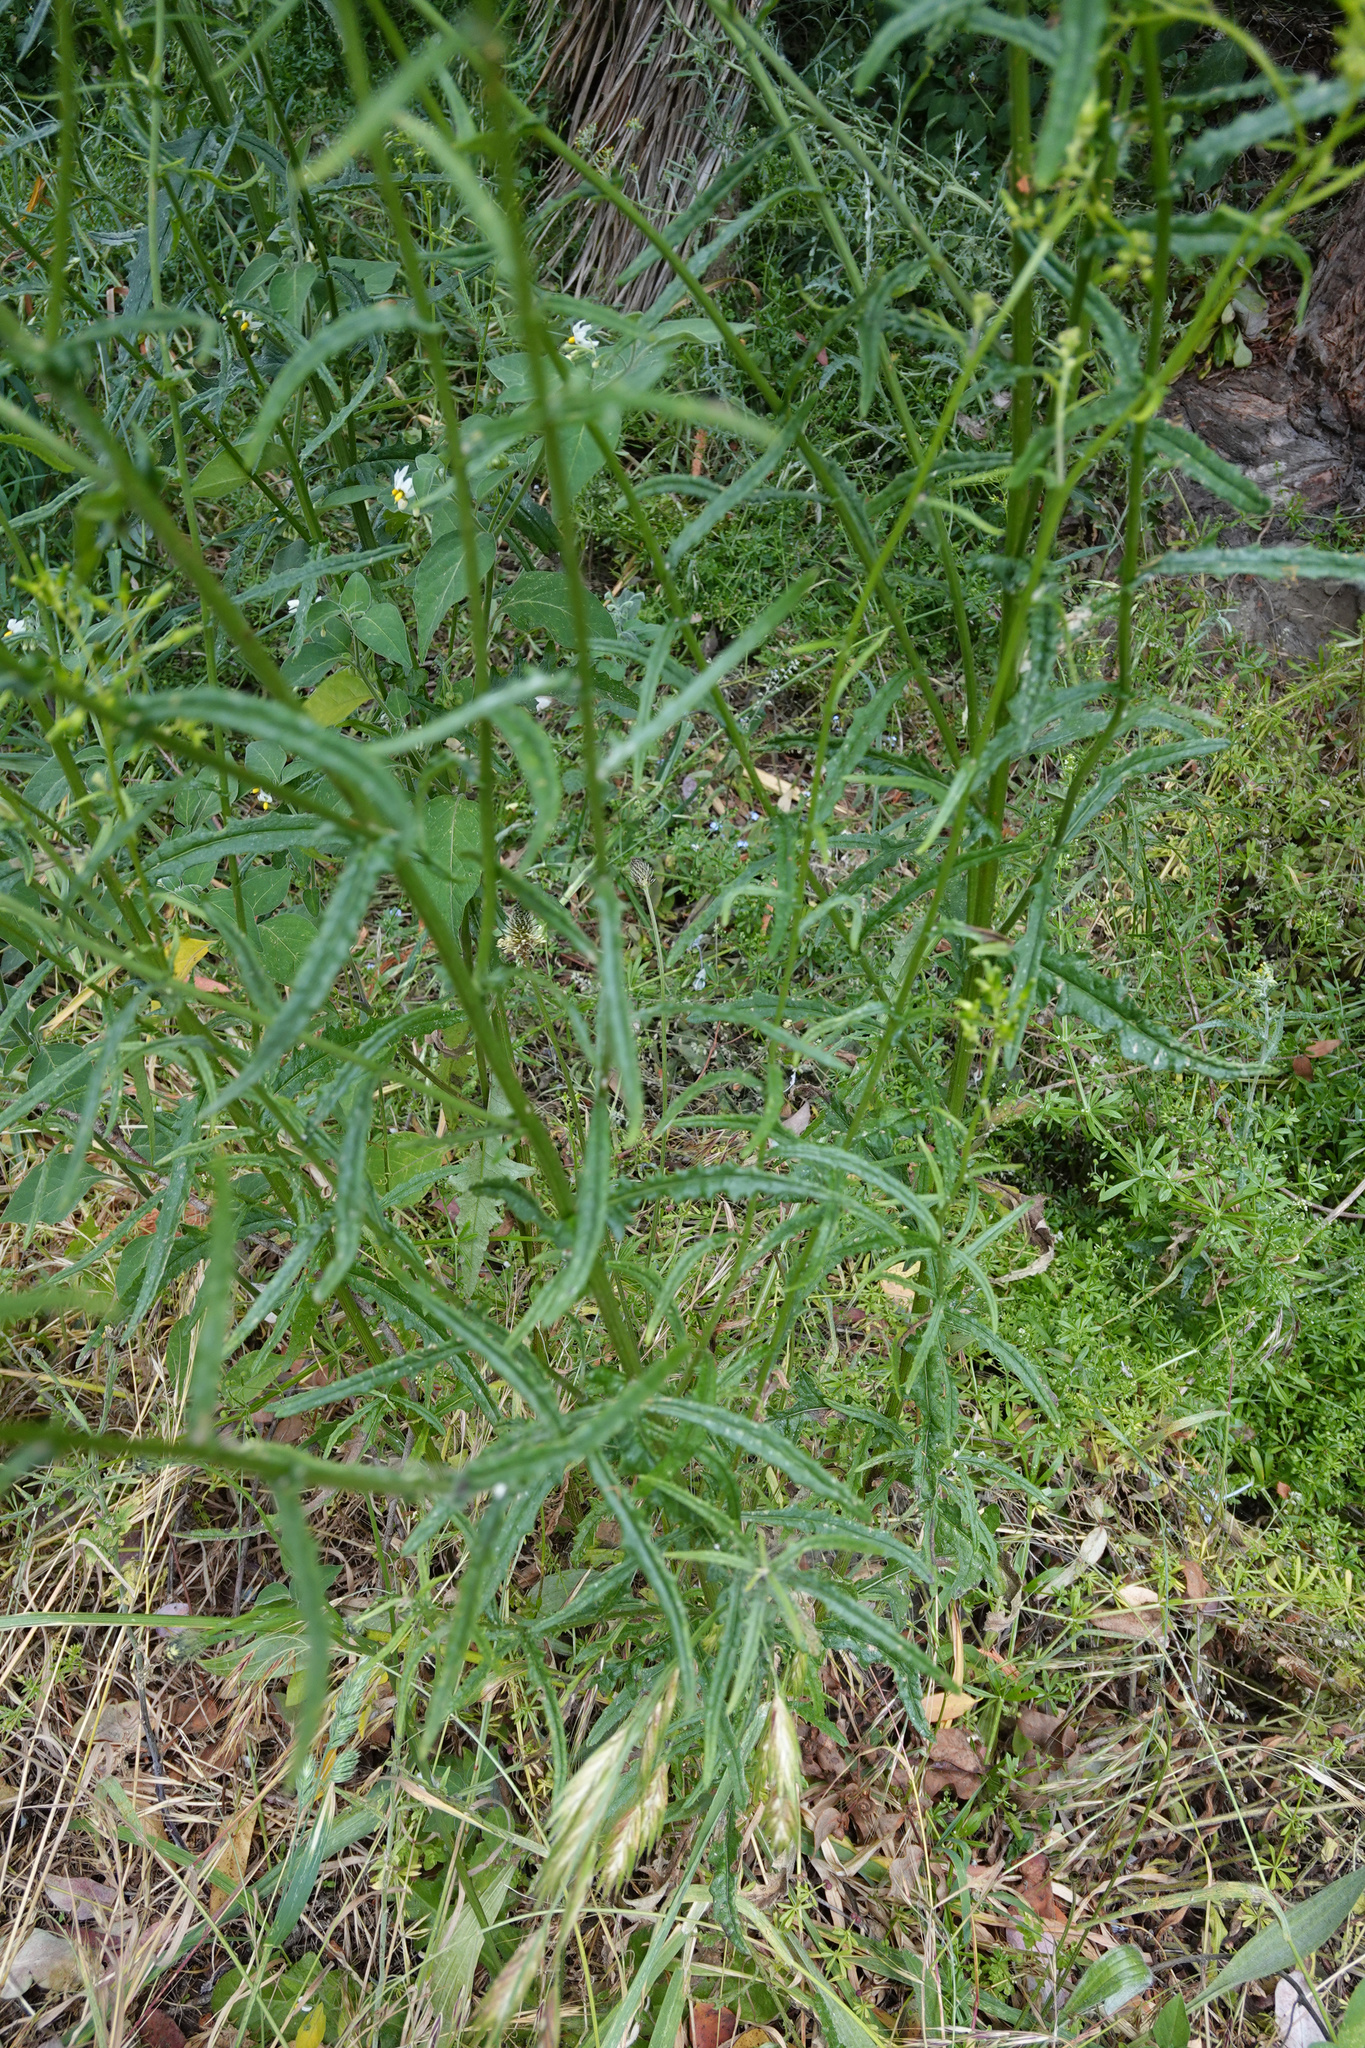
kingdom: Plantae
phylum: Tracheophyta
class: Magnoliopsida
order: Asterales
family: Asteraceae
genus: Senecio
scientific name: Senecio hispidulus
